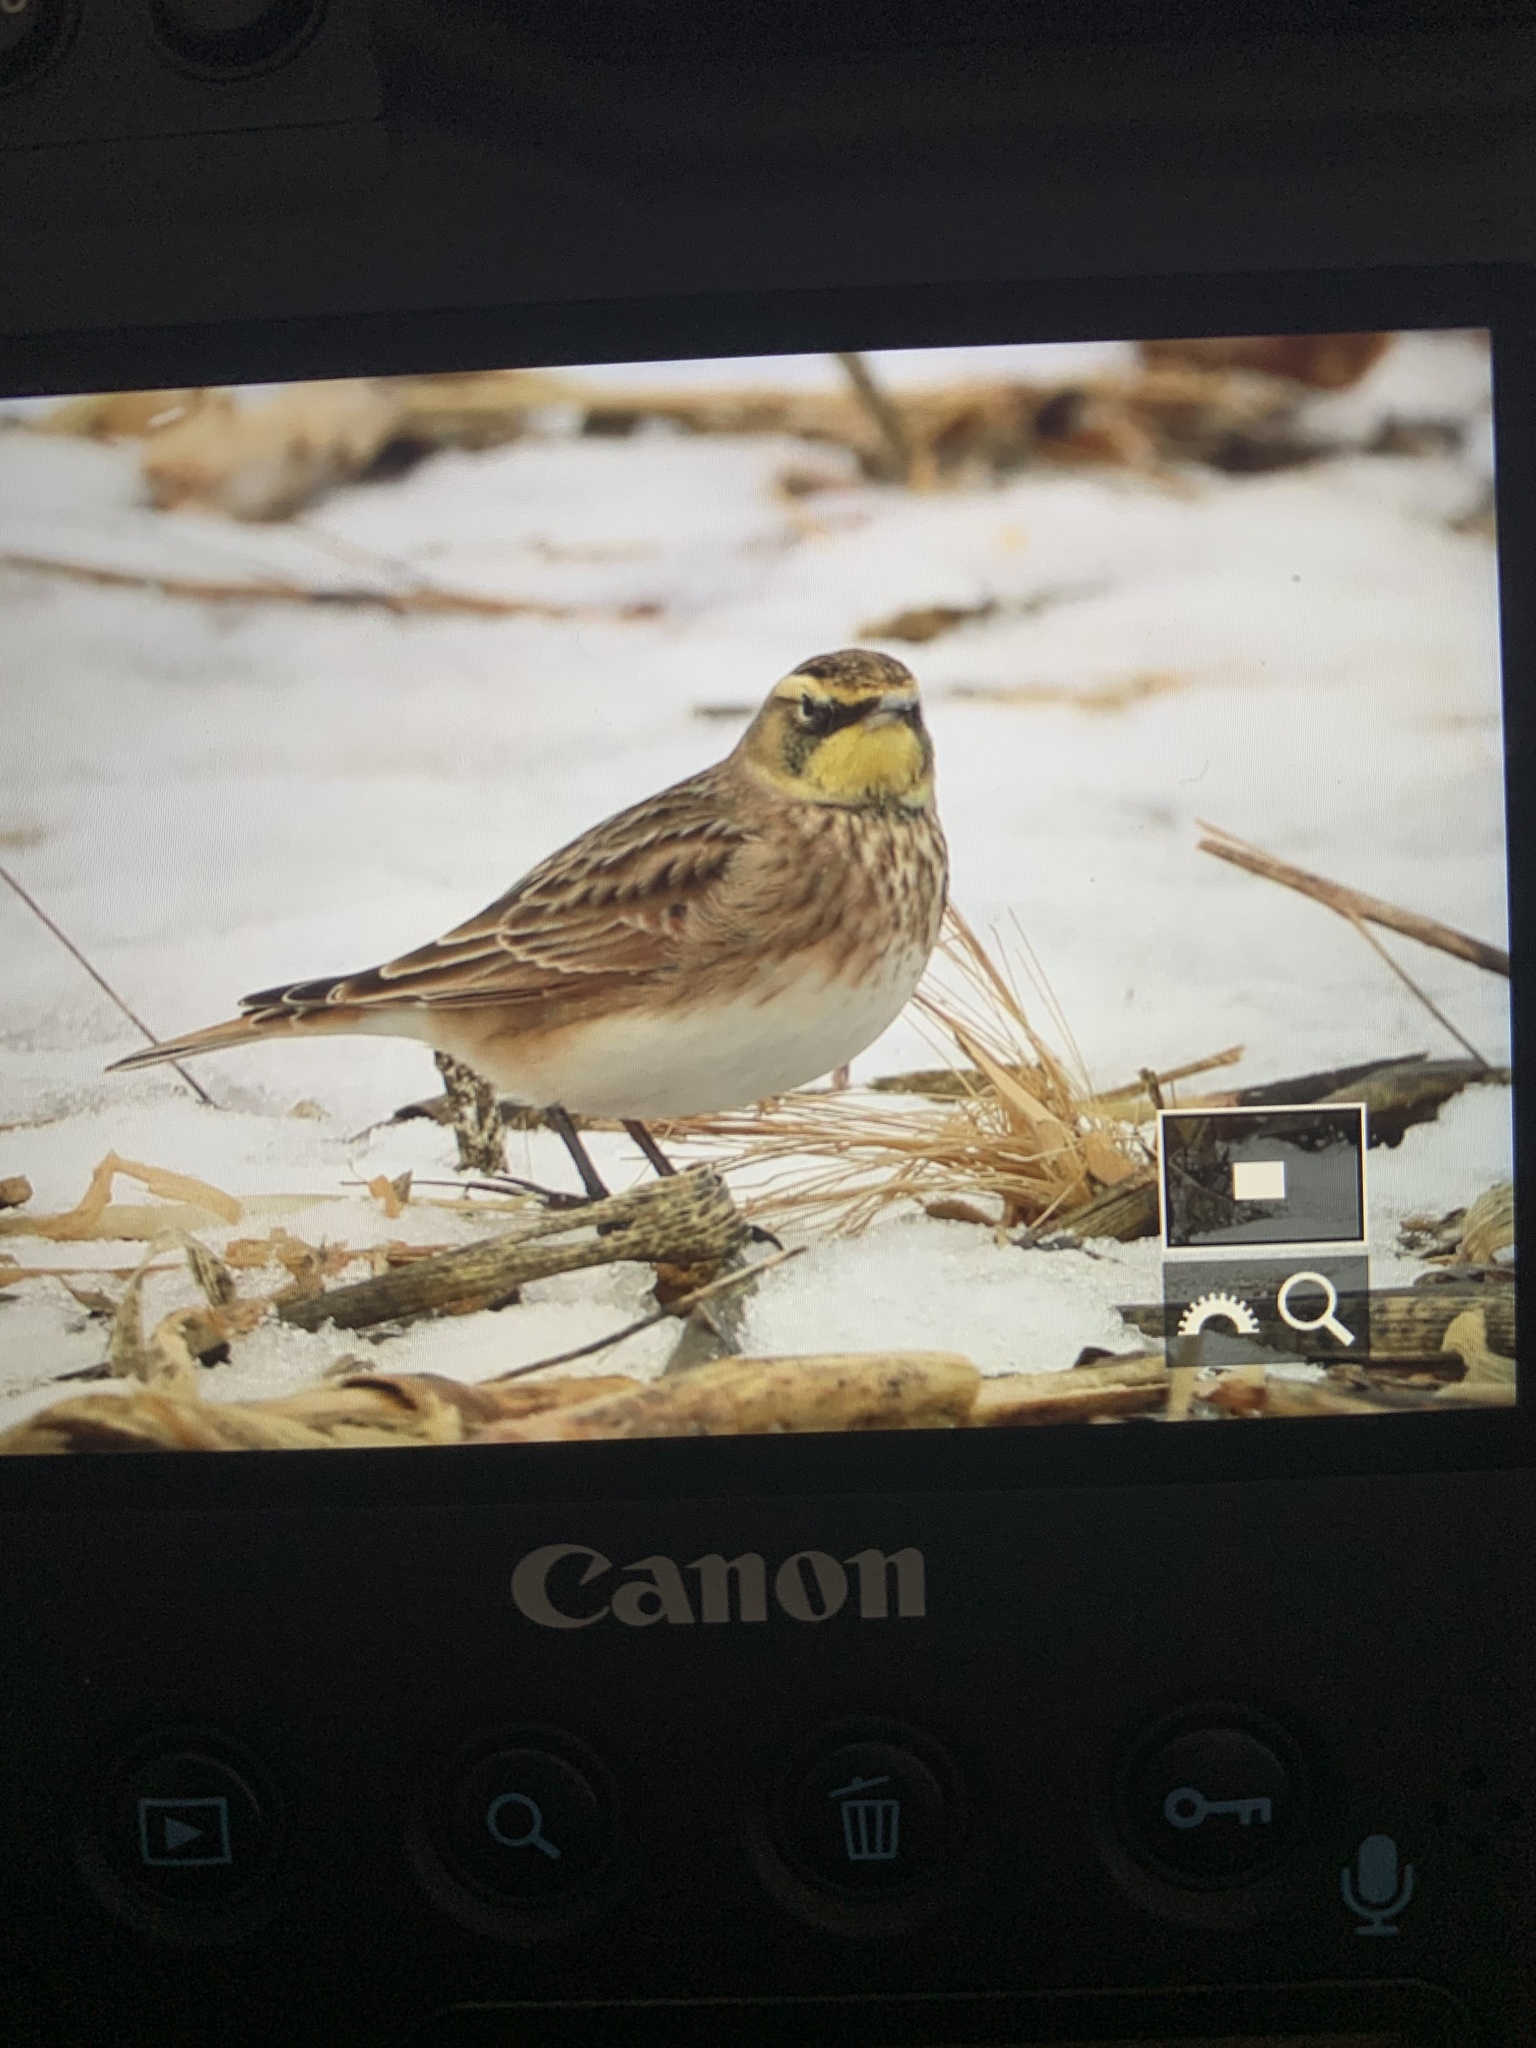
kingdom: Animalia
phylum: Chordata
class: Aves
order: Passeriformes
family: Alaudidae
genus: Eremophila
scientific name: Eremophila alpestris
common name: Horned lark
